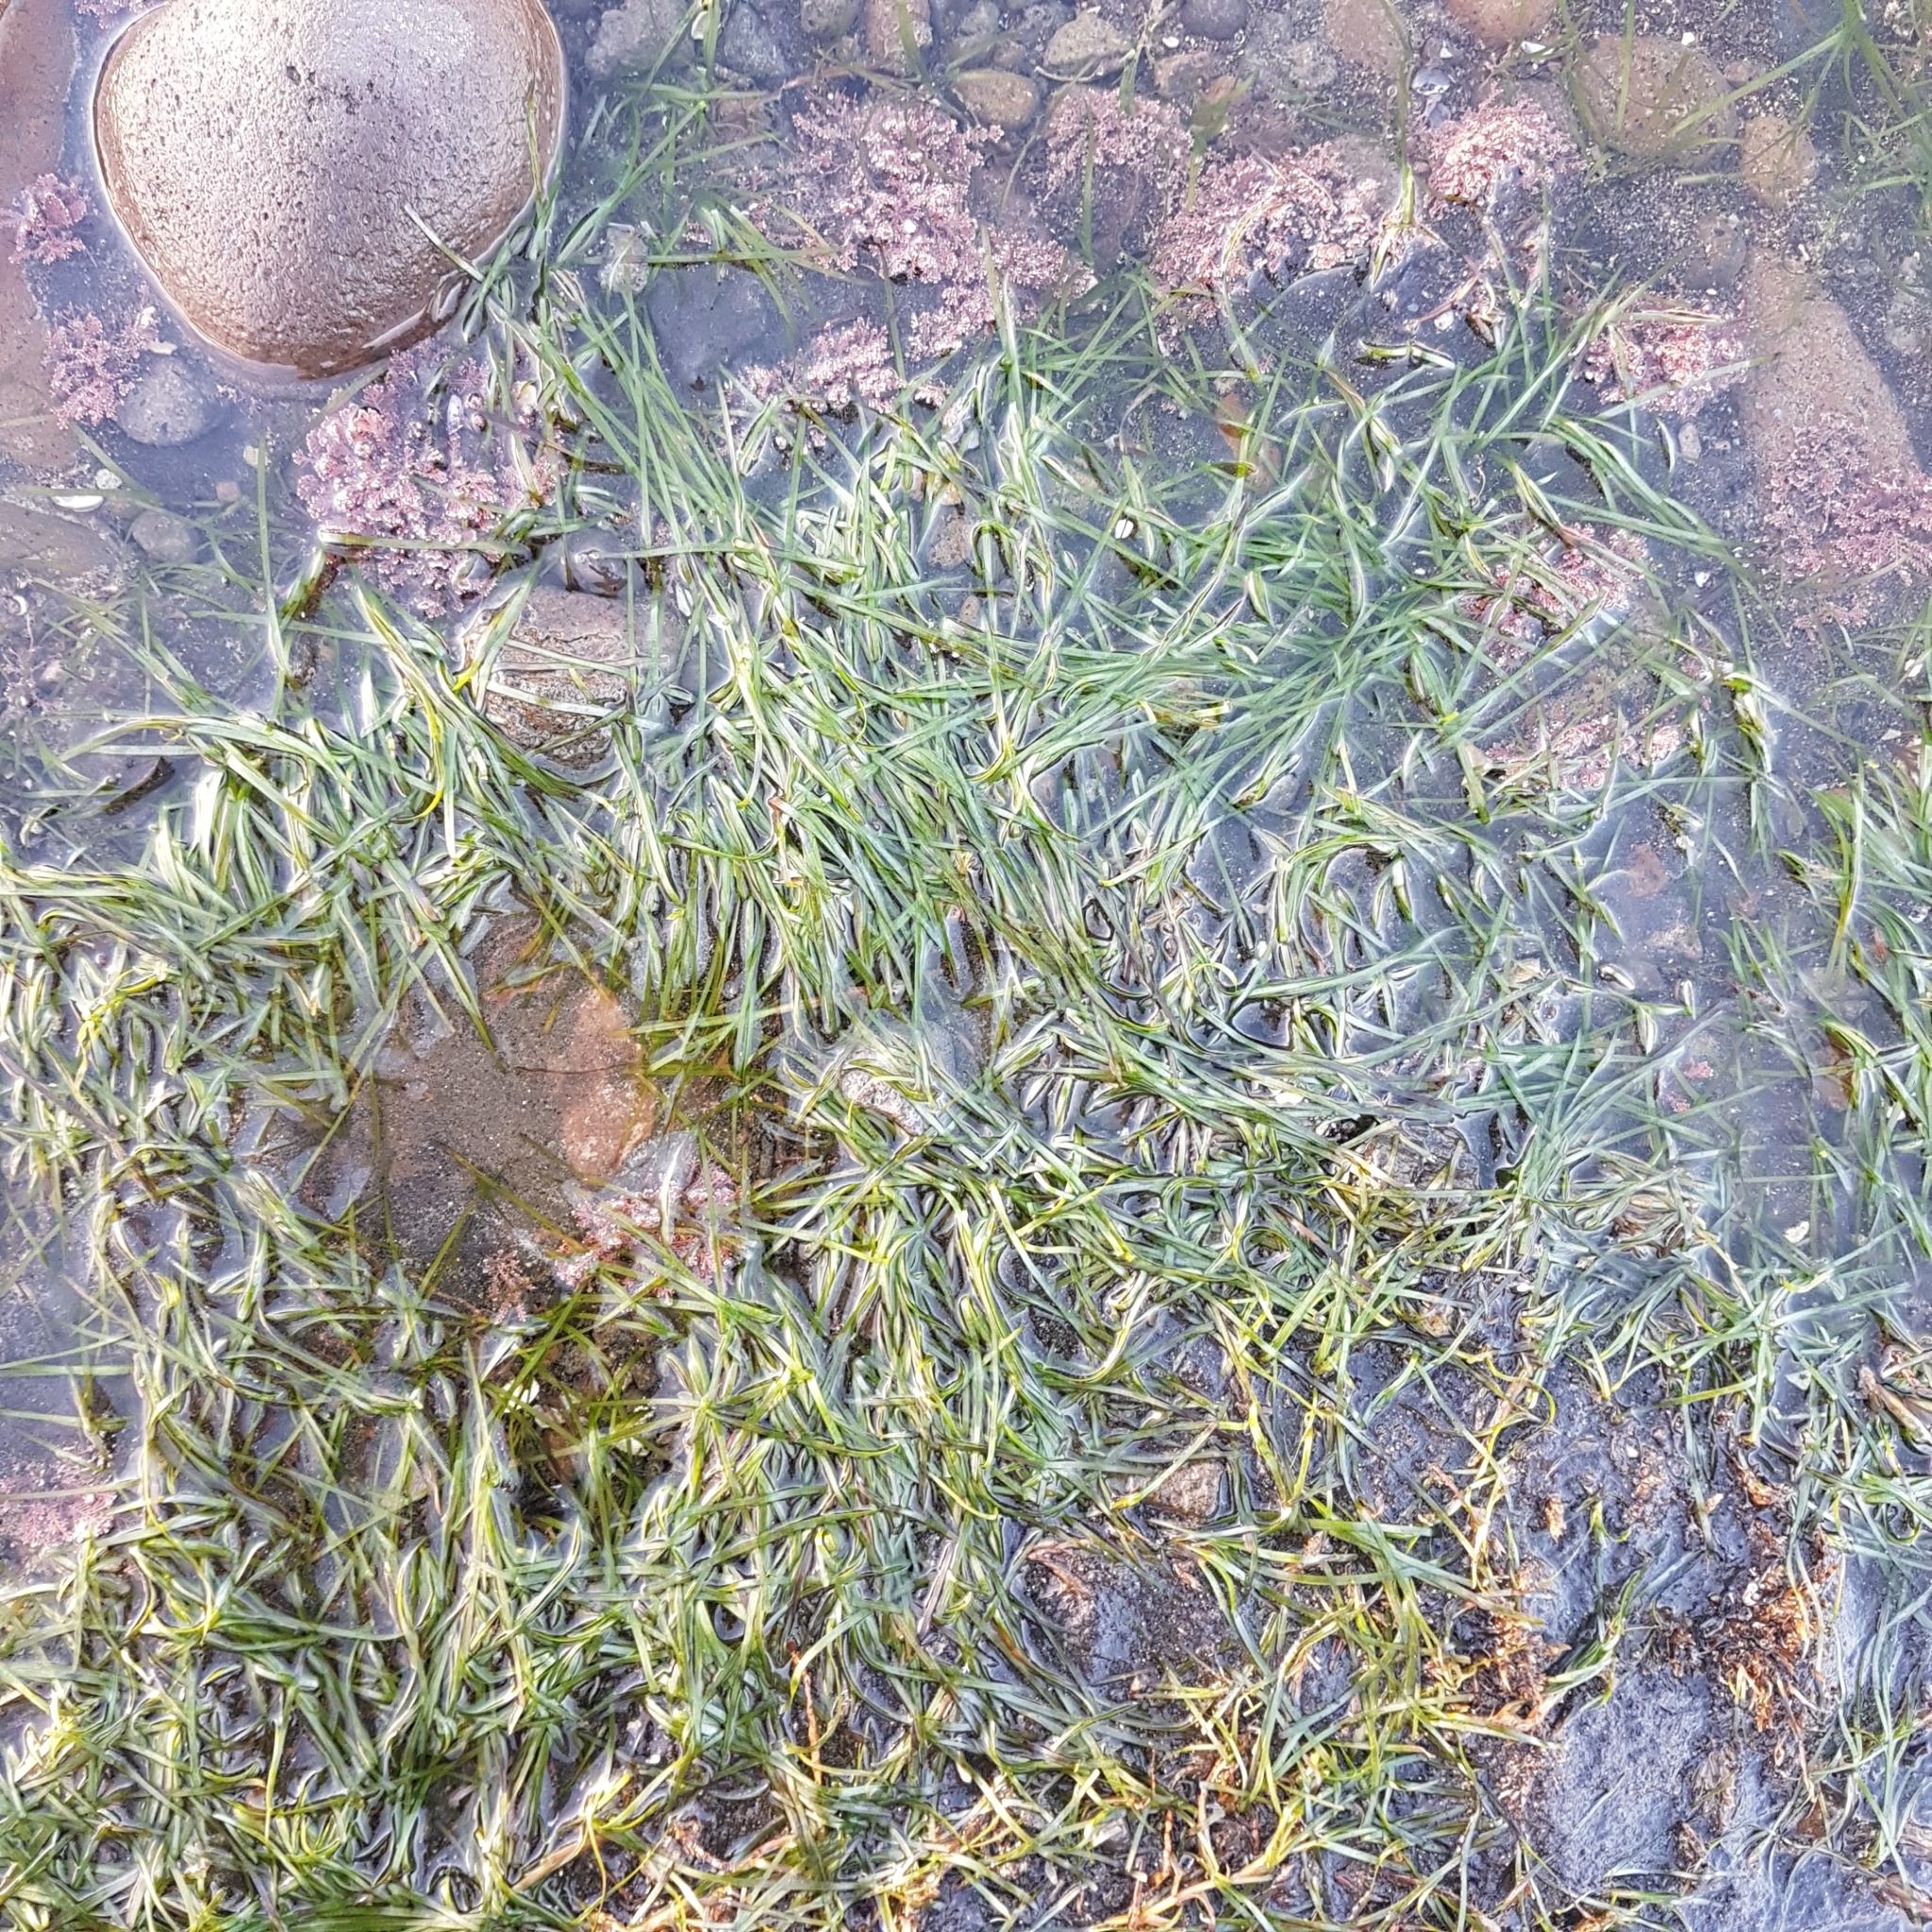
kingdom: Plantae
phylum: Tracheophyta
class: Liliopsida
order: Alismatales
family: Zosteraceae
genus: Zostera
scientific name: Zostera novazelandica
